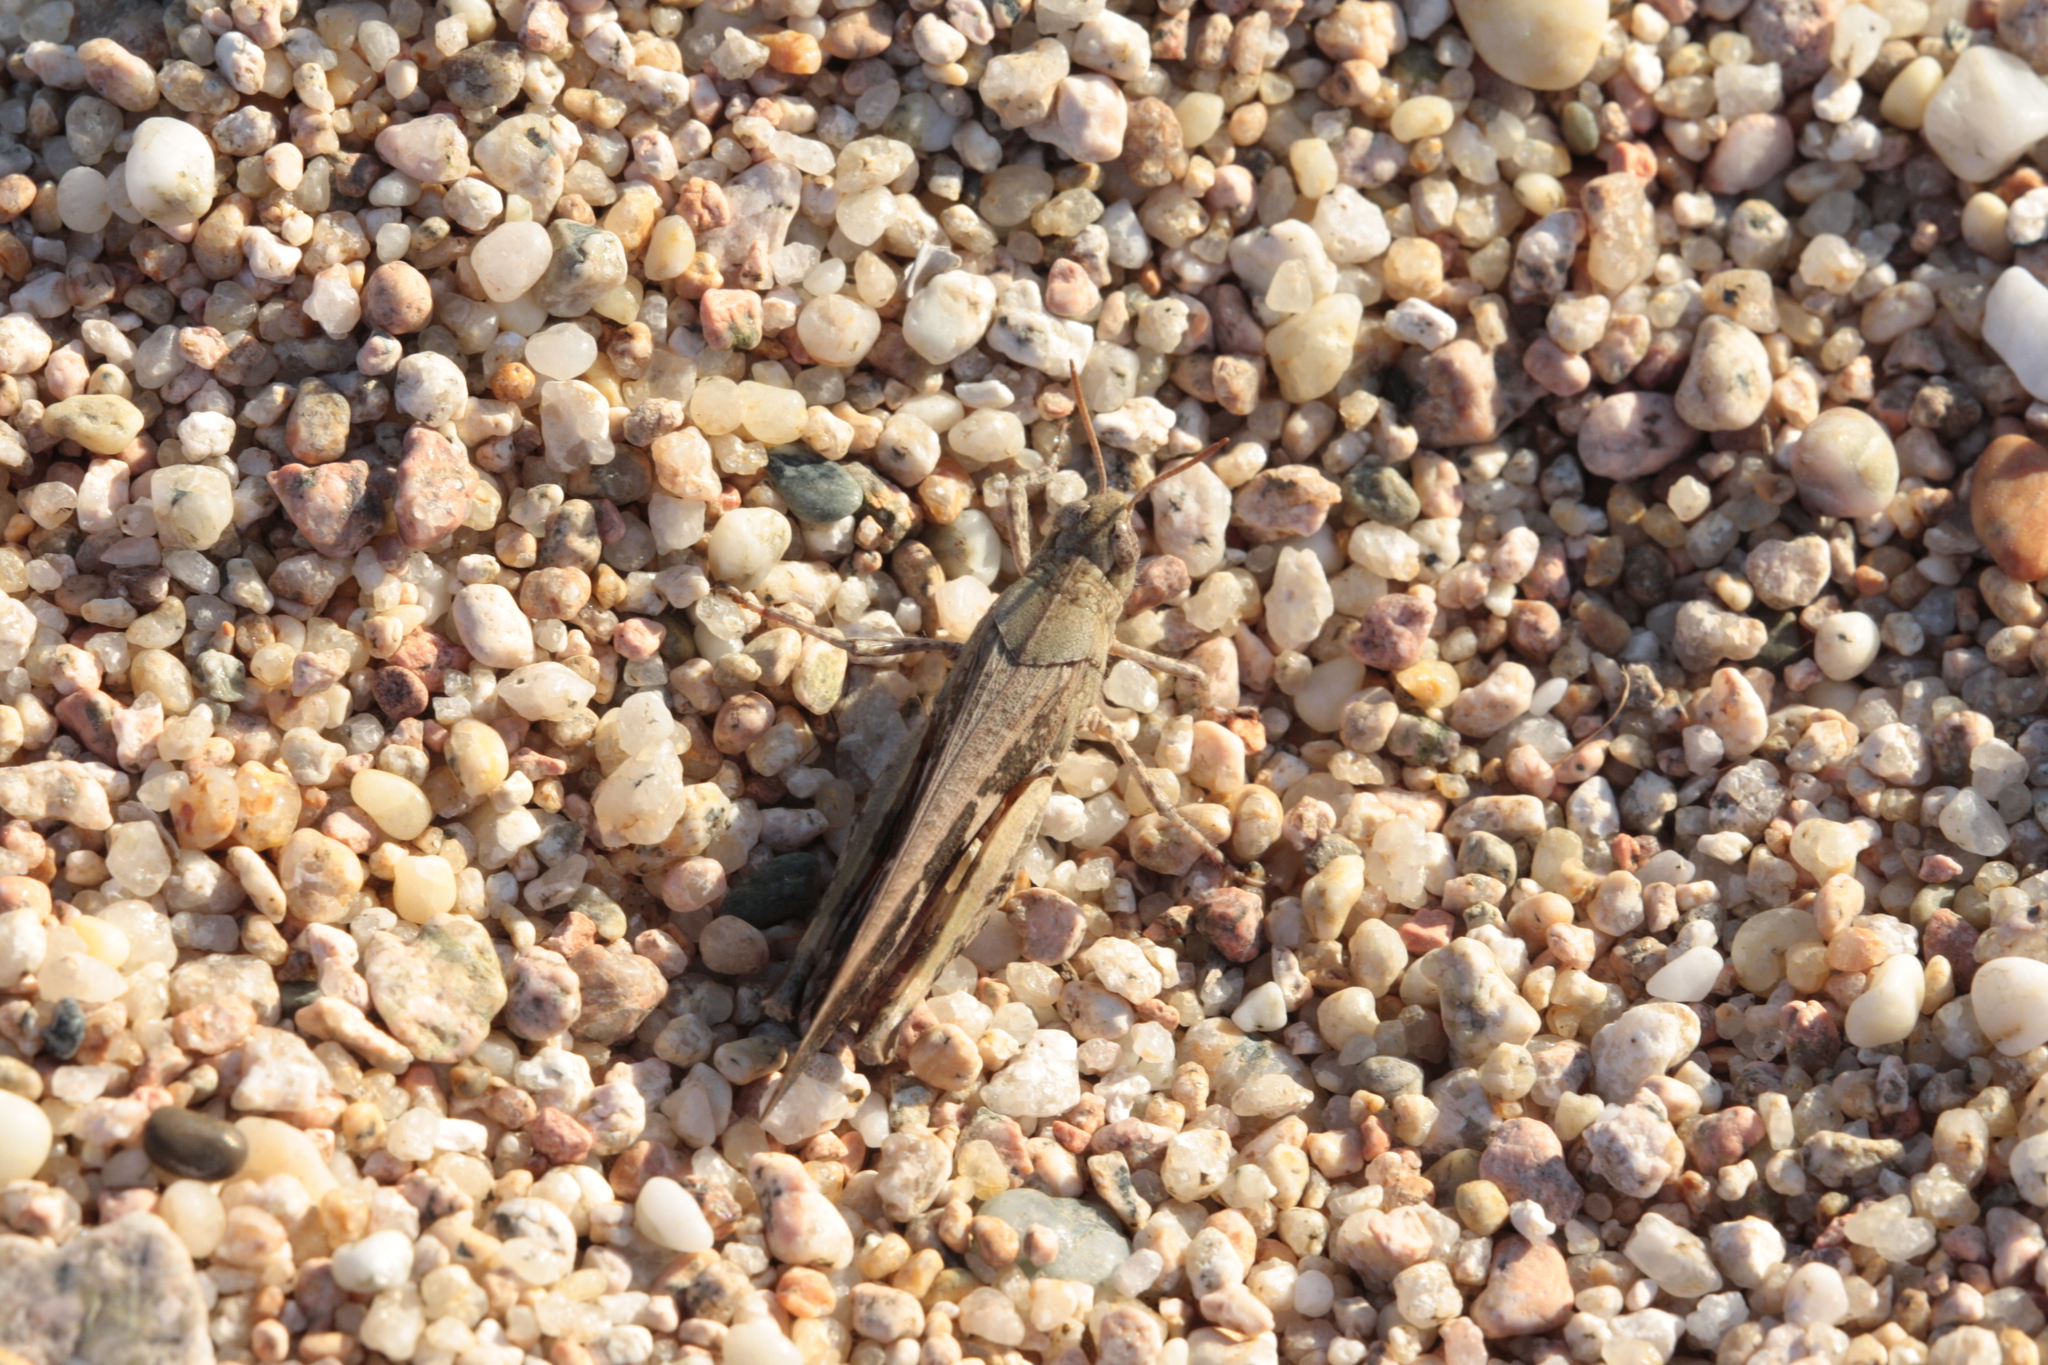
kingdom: Animalia
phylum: Arthropoda
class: Insecta
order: Orthoptera
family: Acrididae
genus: Aiolopus
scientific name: Aiolopus strepens
